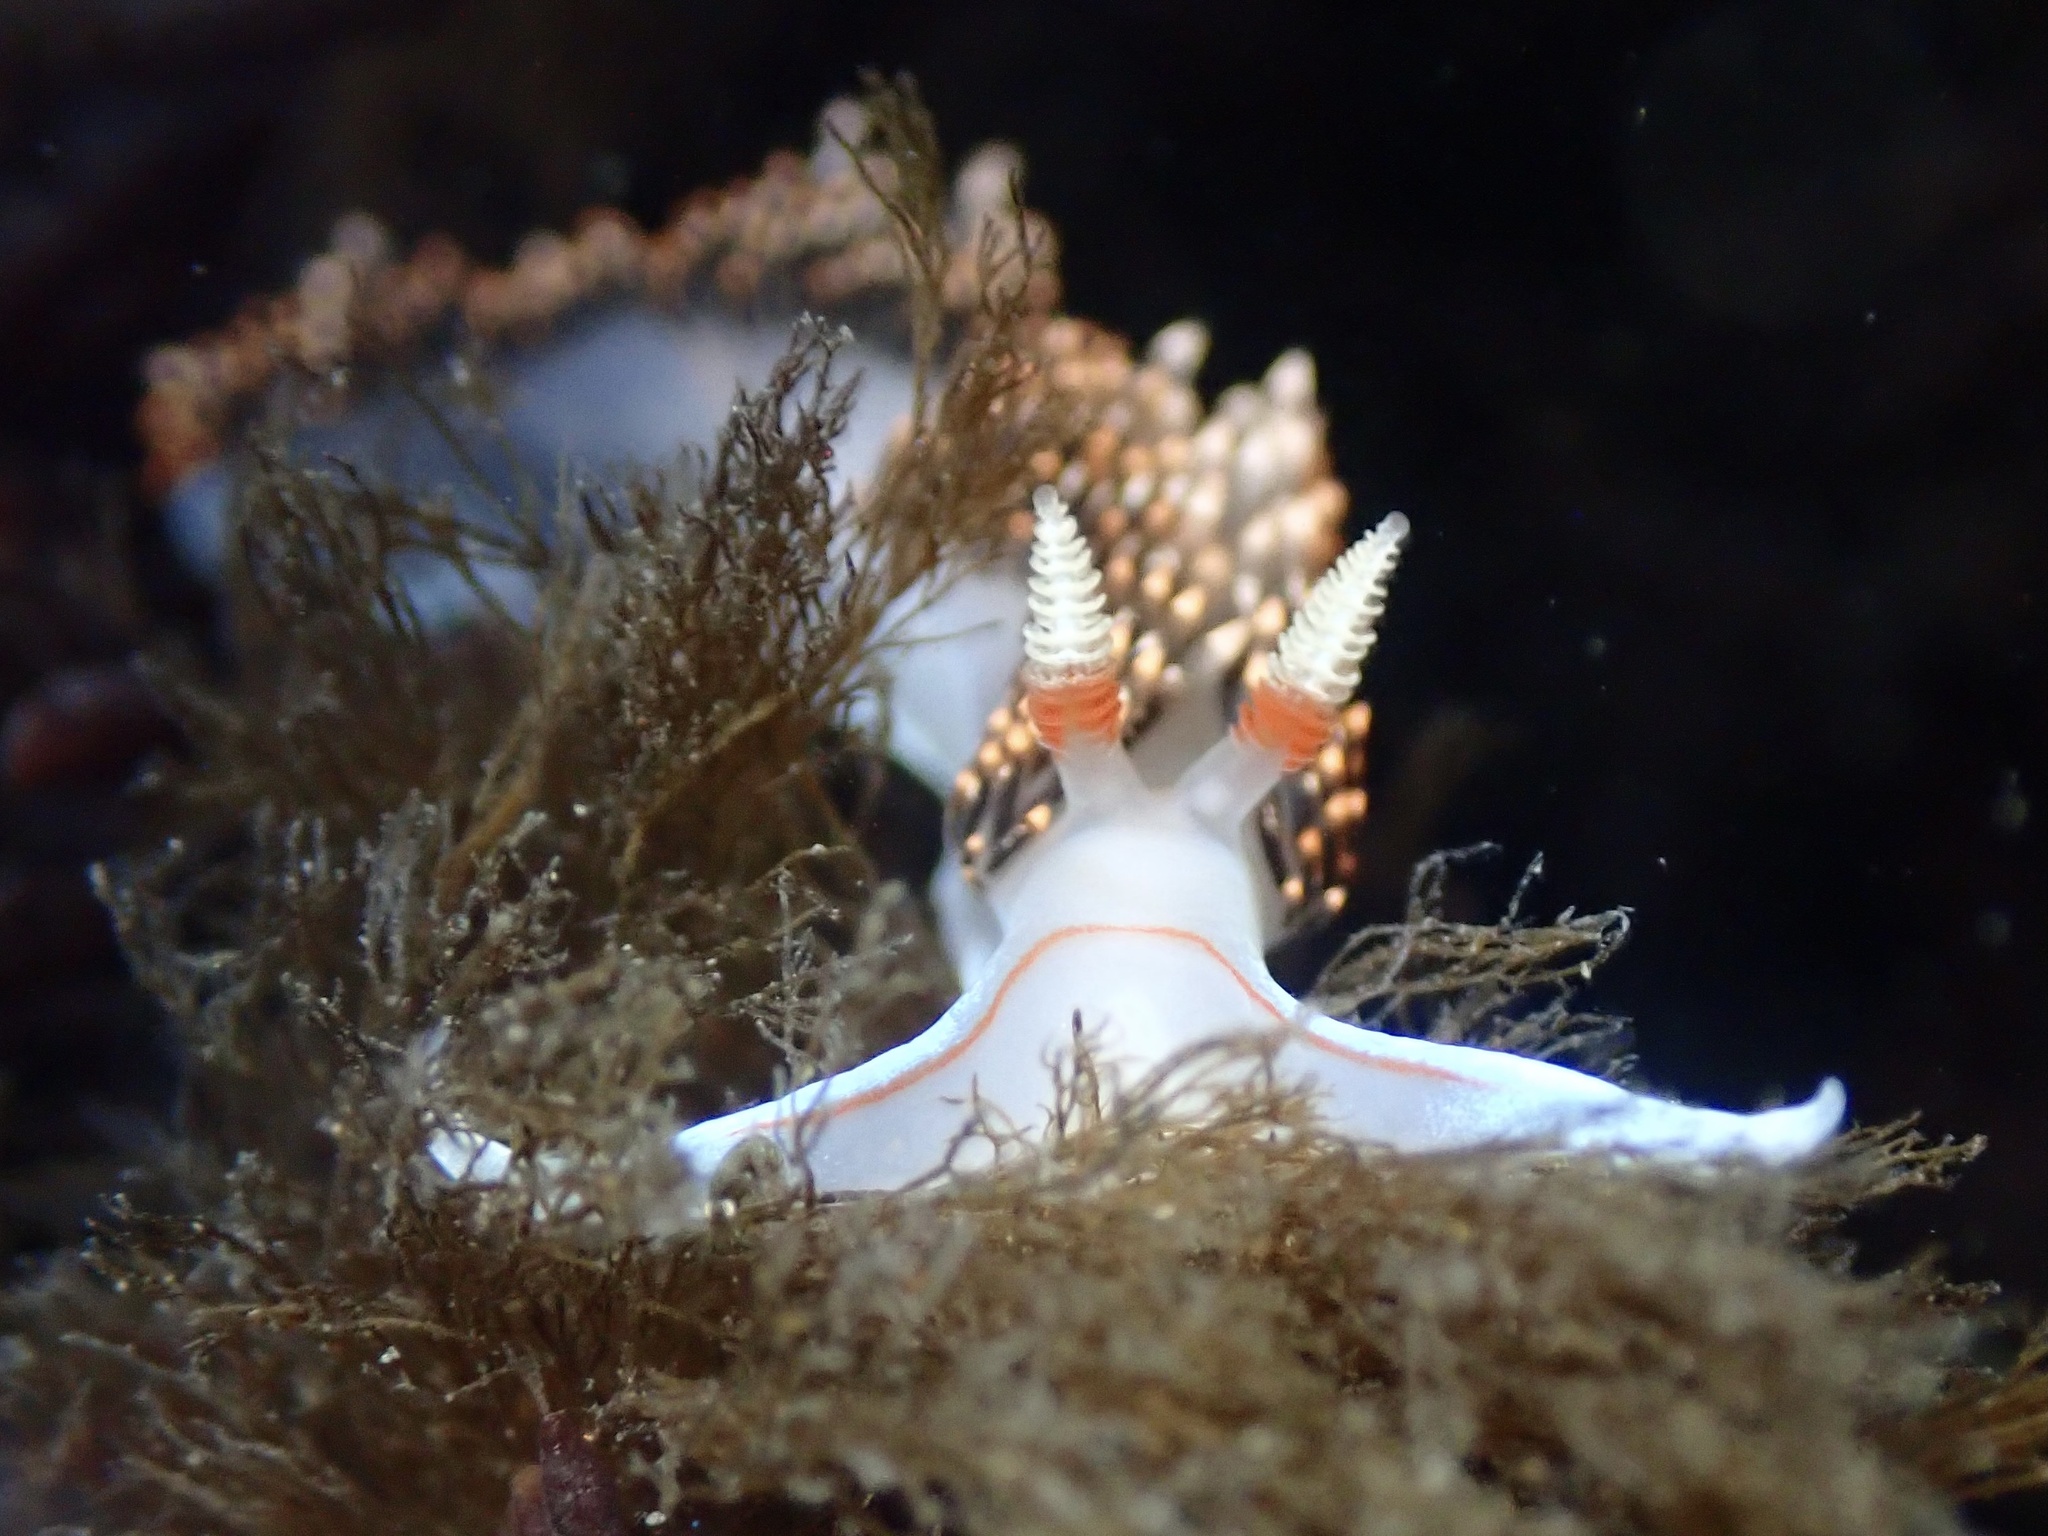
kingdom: Animalia
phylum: Mollusca
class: Gastropoda
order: Nudibranchia
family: Facelinidae
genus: Phidiana
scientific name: Phidiana hiltoni
